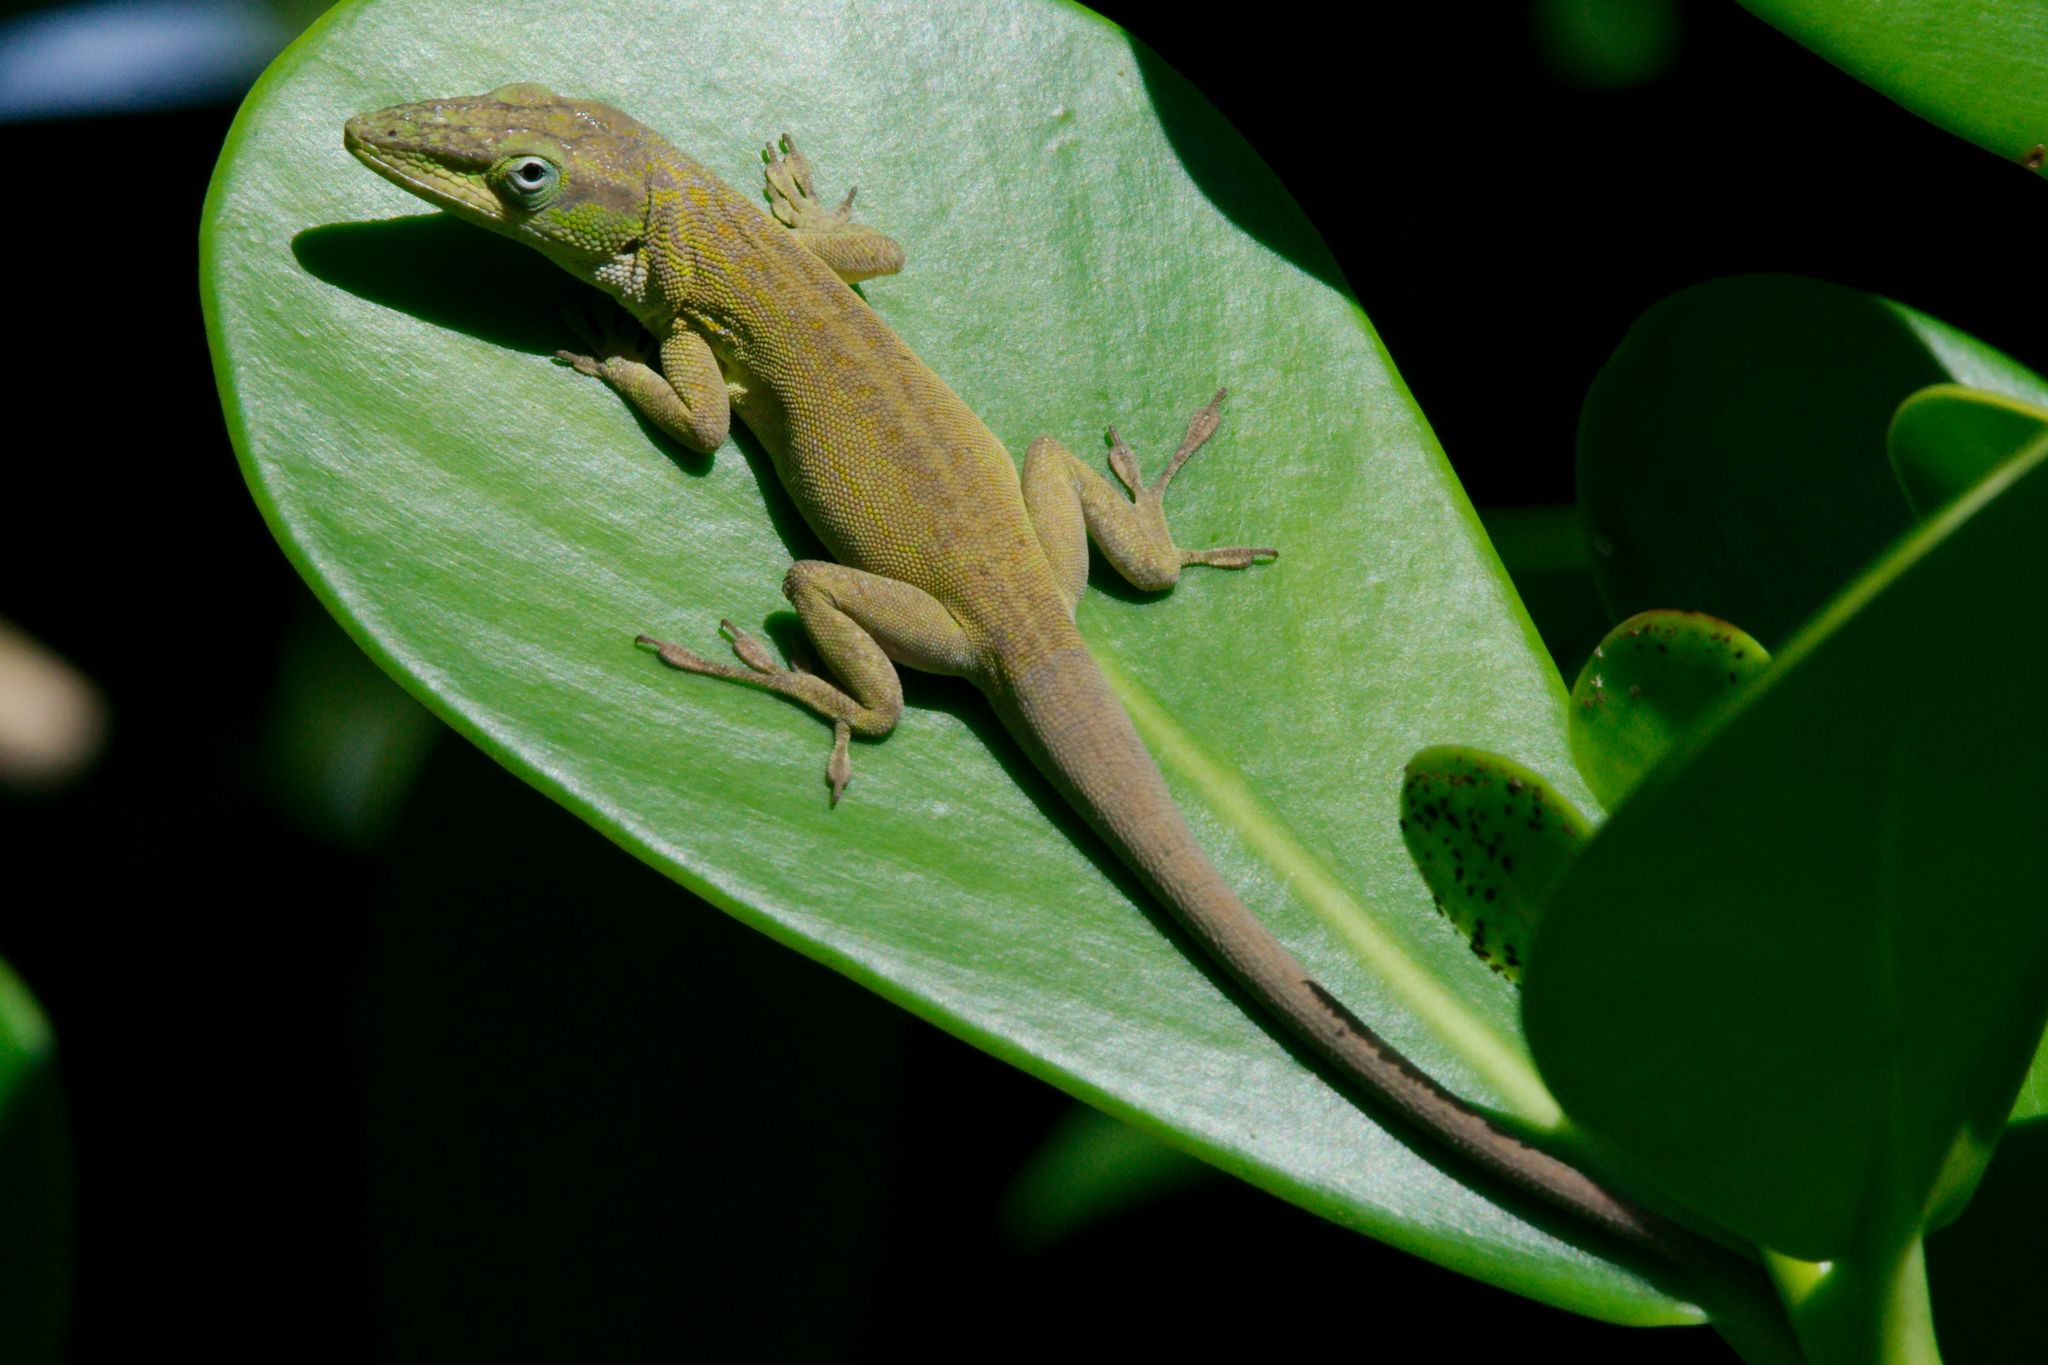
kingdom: Animalia
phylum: Chordata
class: Squamata
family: Dactyloidae
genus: Anolis
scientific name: Anolis carolinensis
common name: Green anole
